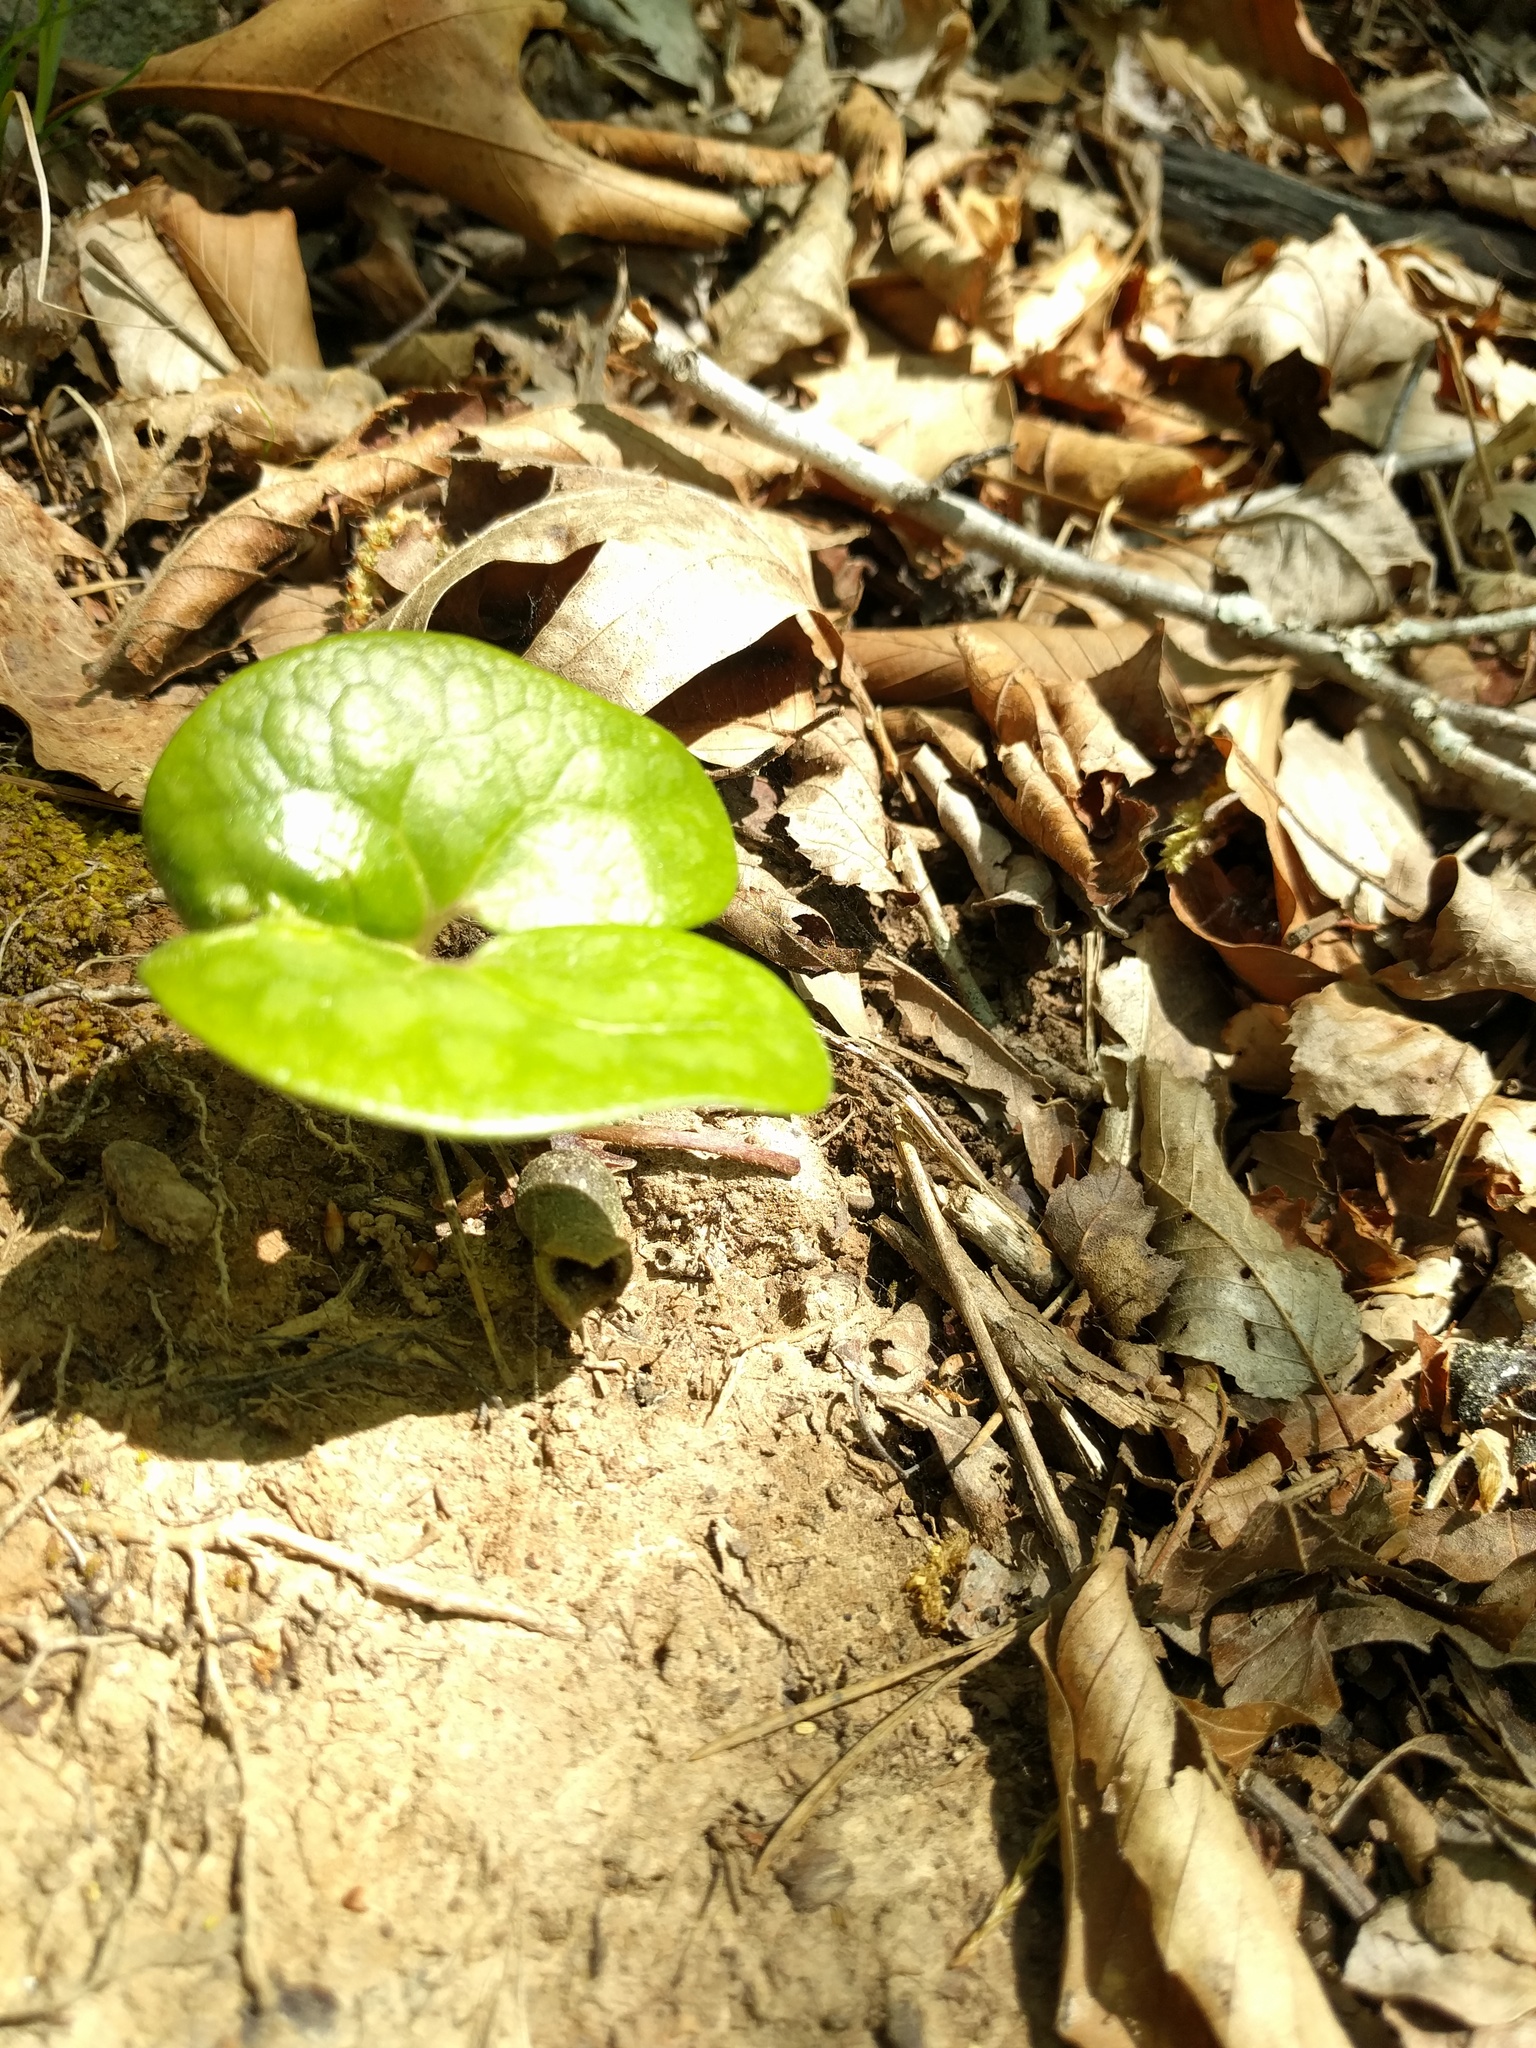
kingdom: Plantae
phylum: Tracheophyta
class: Magnoliopsida
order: Piperales
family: Aristolochiaceae
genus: Hexastylis
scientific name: Hexastylis arifolia
